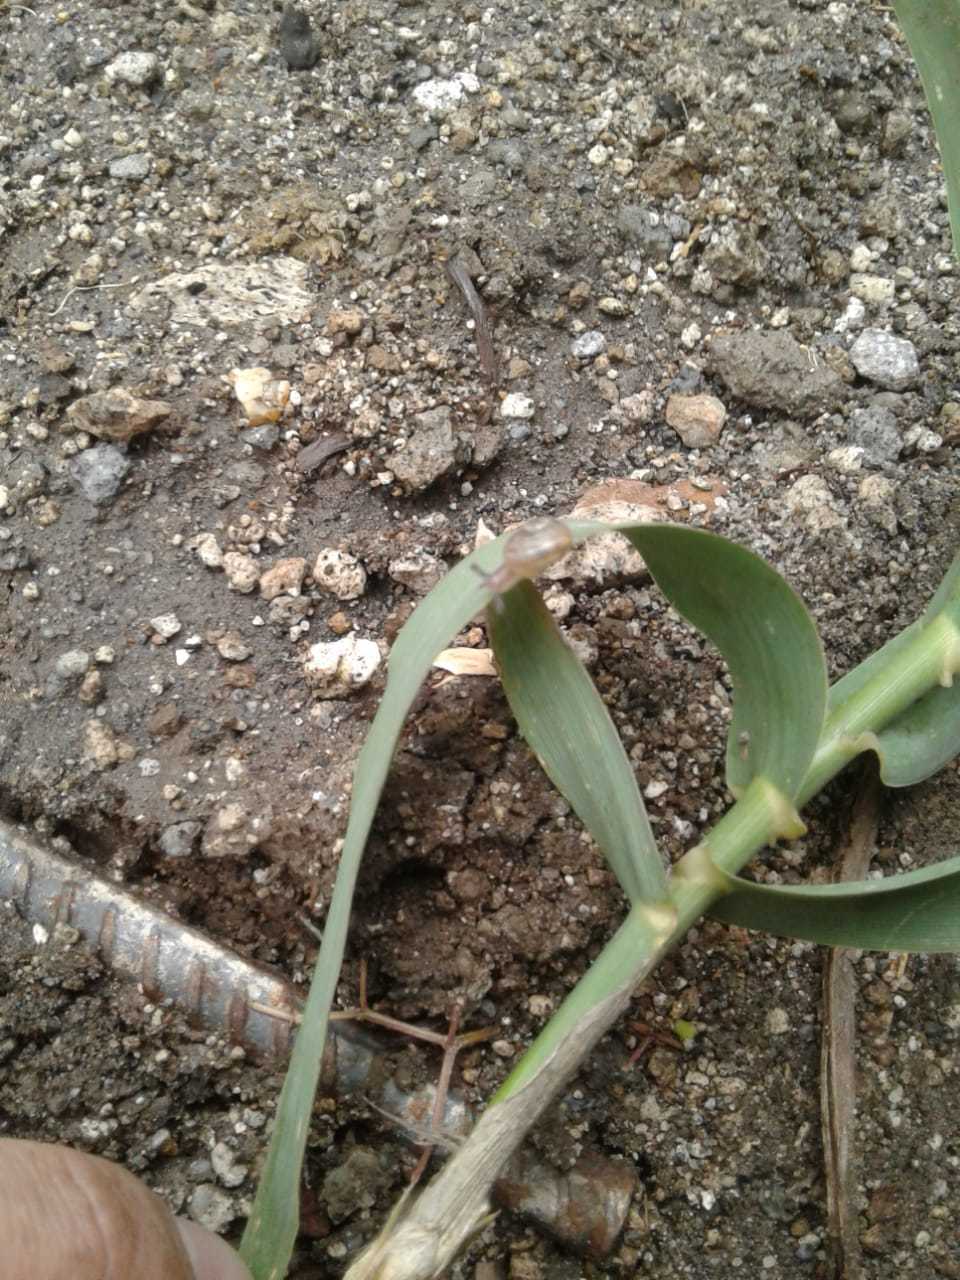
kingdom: Animalia
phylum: Mollusca
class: Gastropoda
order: Stylommatophora
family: Helicidae
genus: Cornu
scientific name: Cornu aspersum
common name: Brown garden snail
